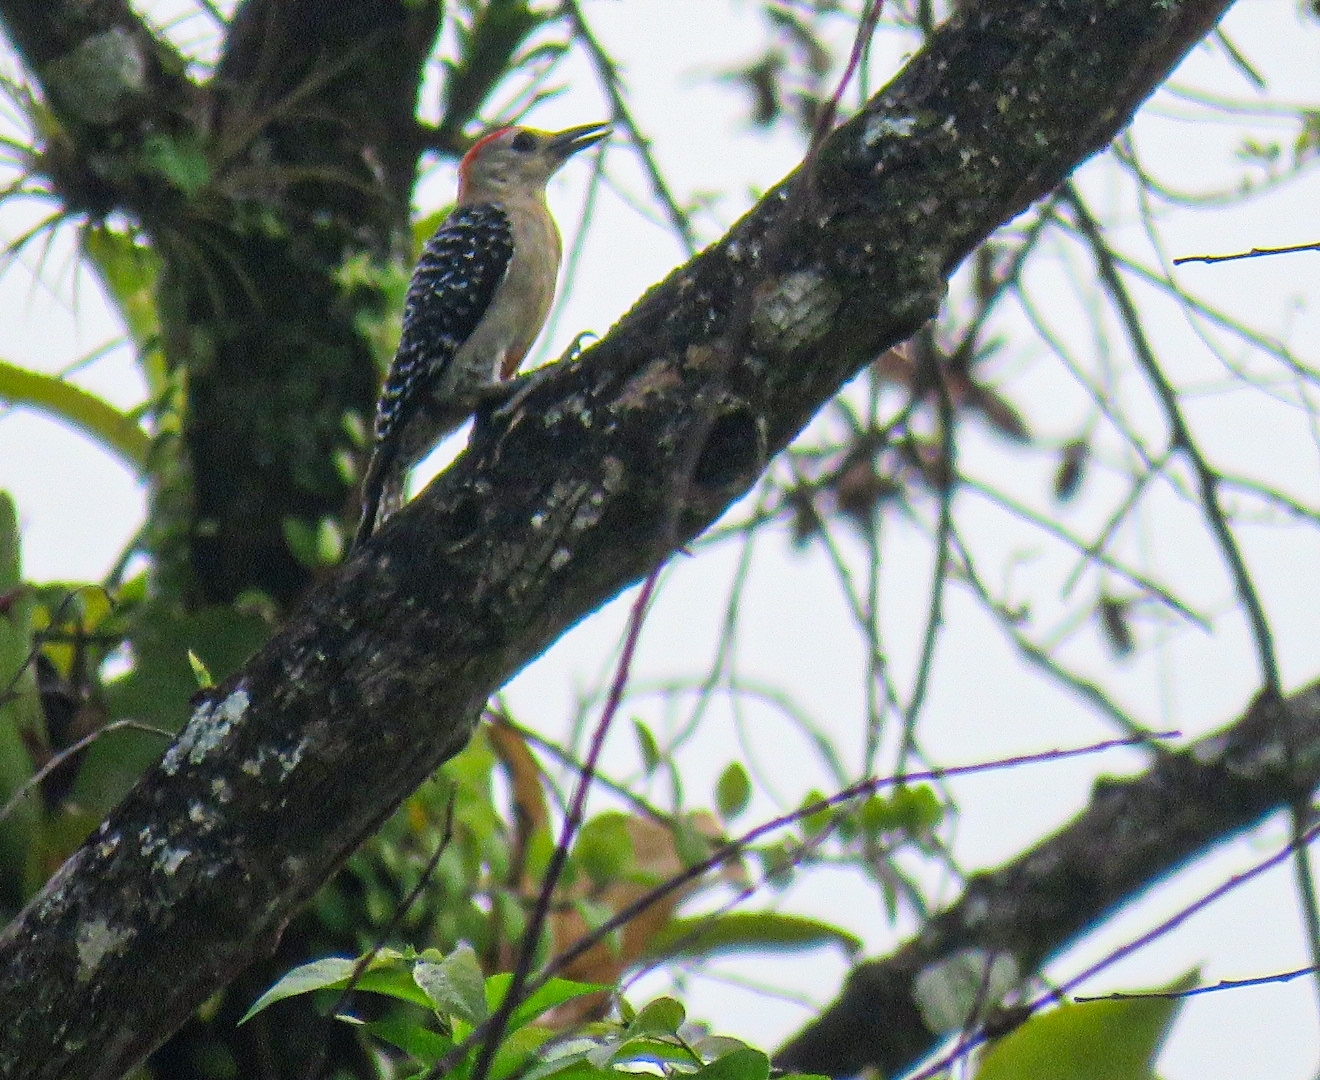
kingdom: Animalia
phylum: Chordata
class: Aves
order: Piciformes
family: Picidae
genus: Melanerpes
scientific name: Melanerpes rubricapillus
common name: Red-crowned woodpecker
